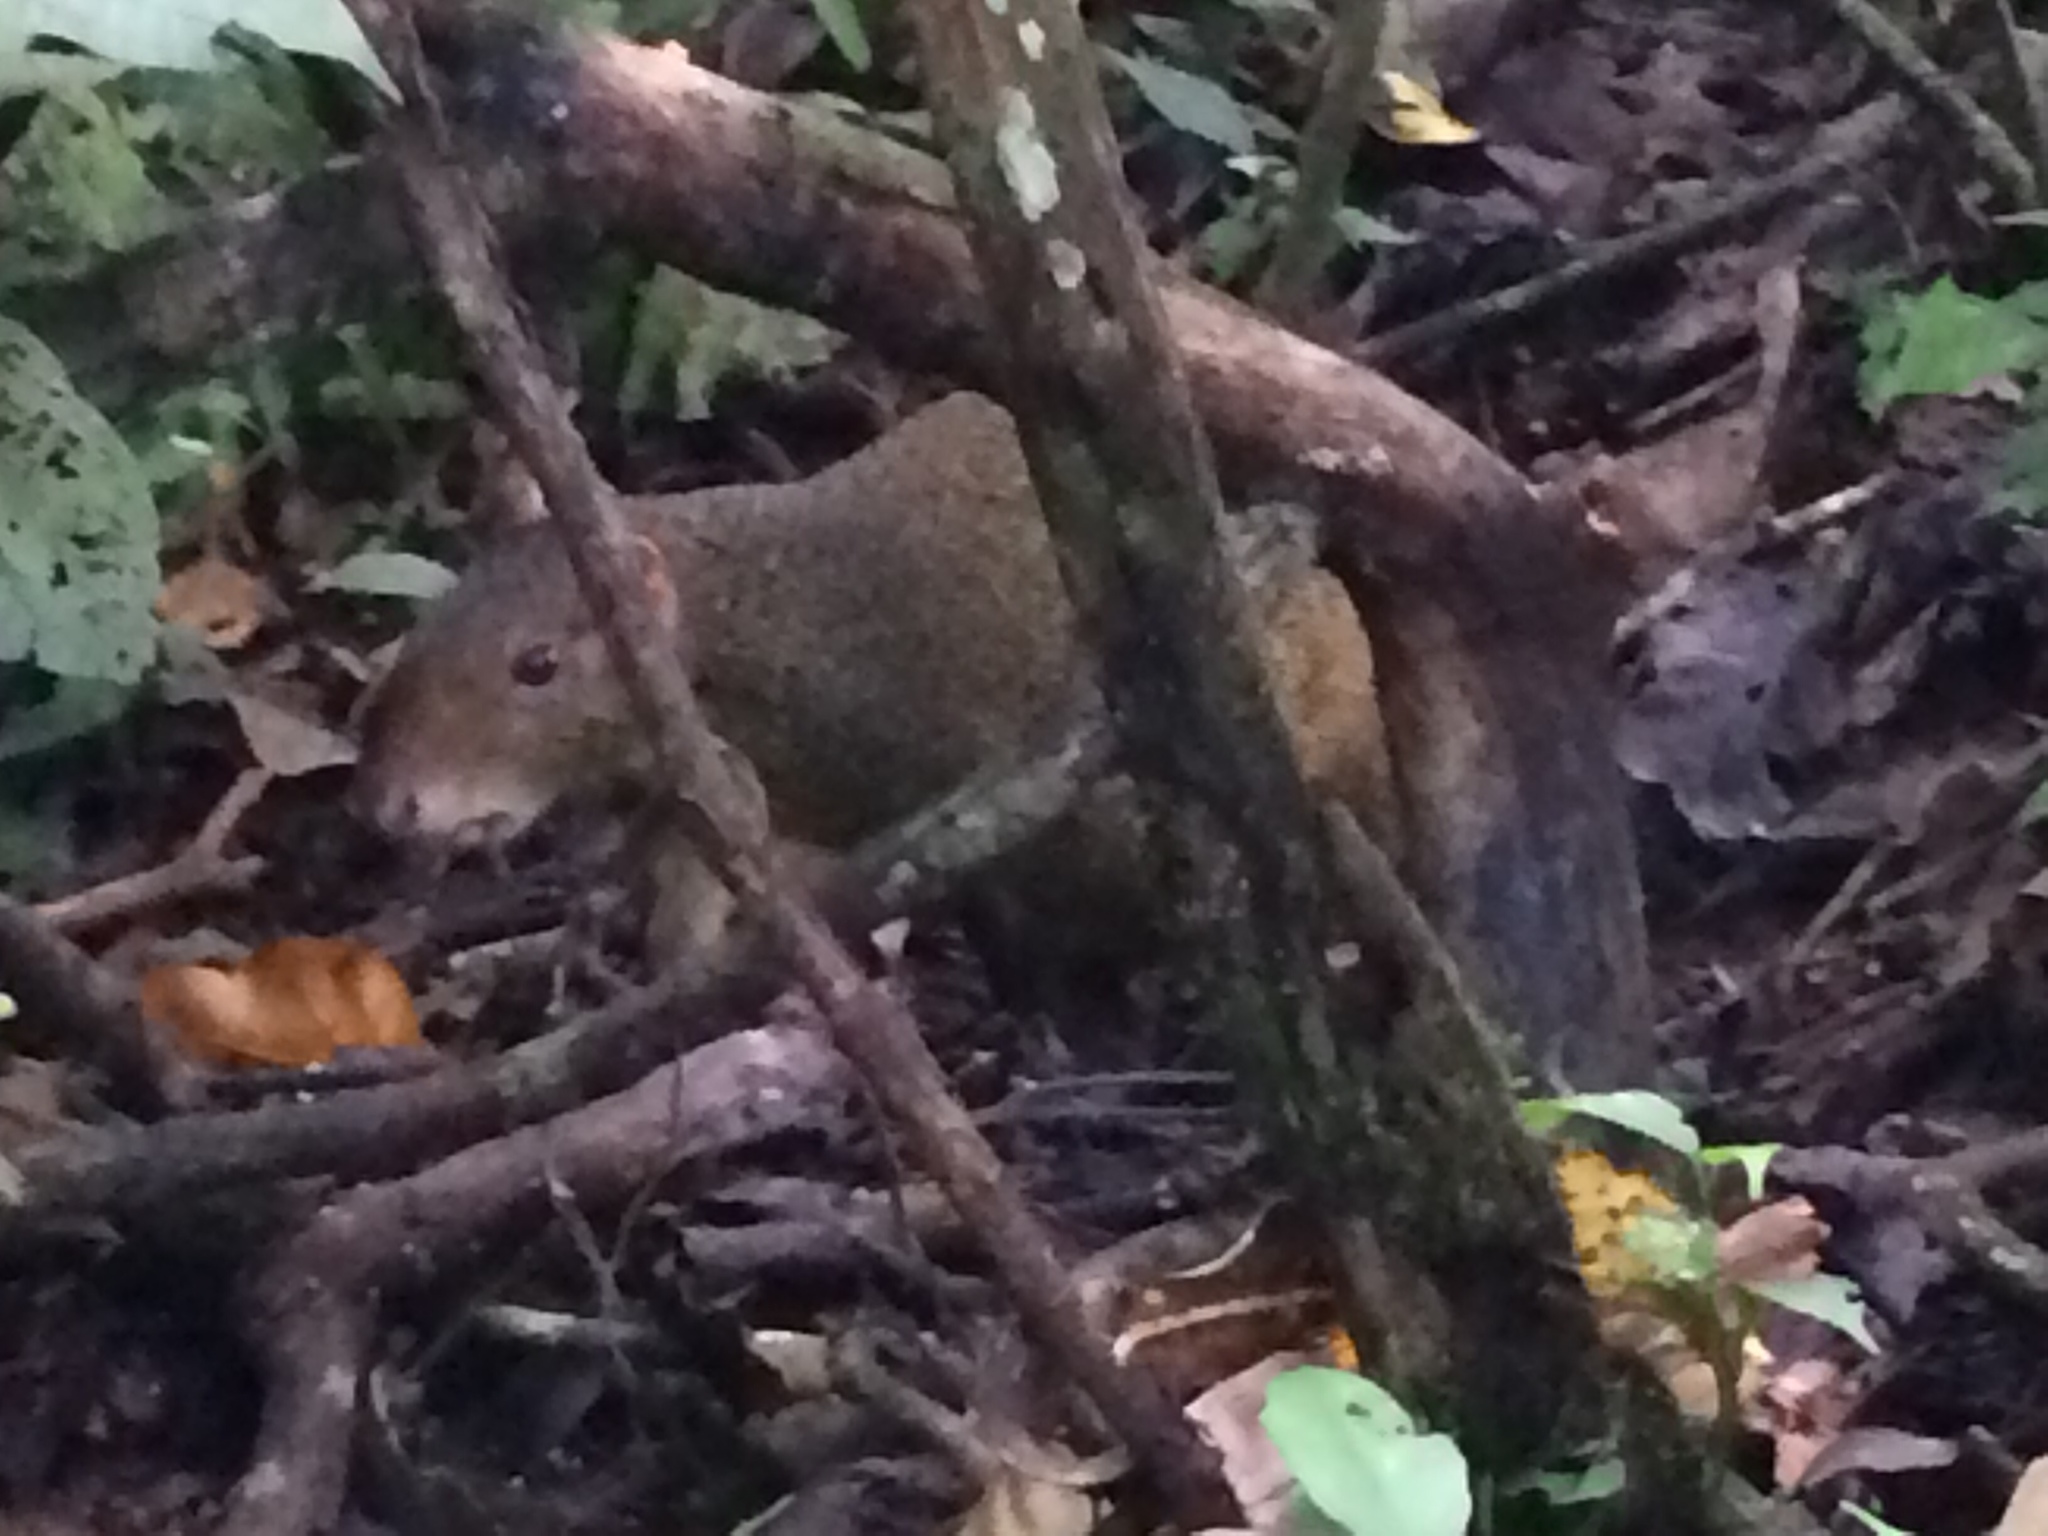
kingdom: Animalia
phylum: Chordata
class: Mammalia
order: Rodentia
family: Dasyproctidae
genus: Dasyprocta
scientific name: Dasyprocta azarae
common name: Azara's agouti
